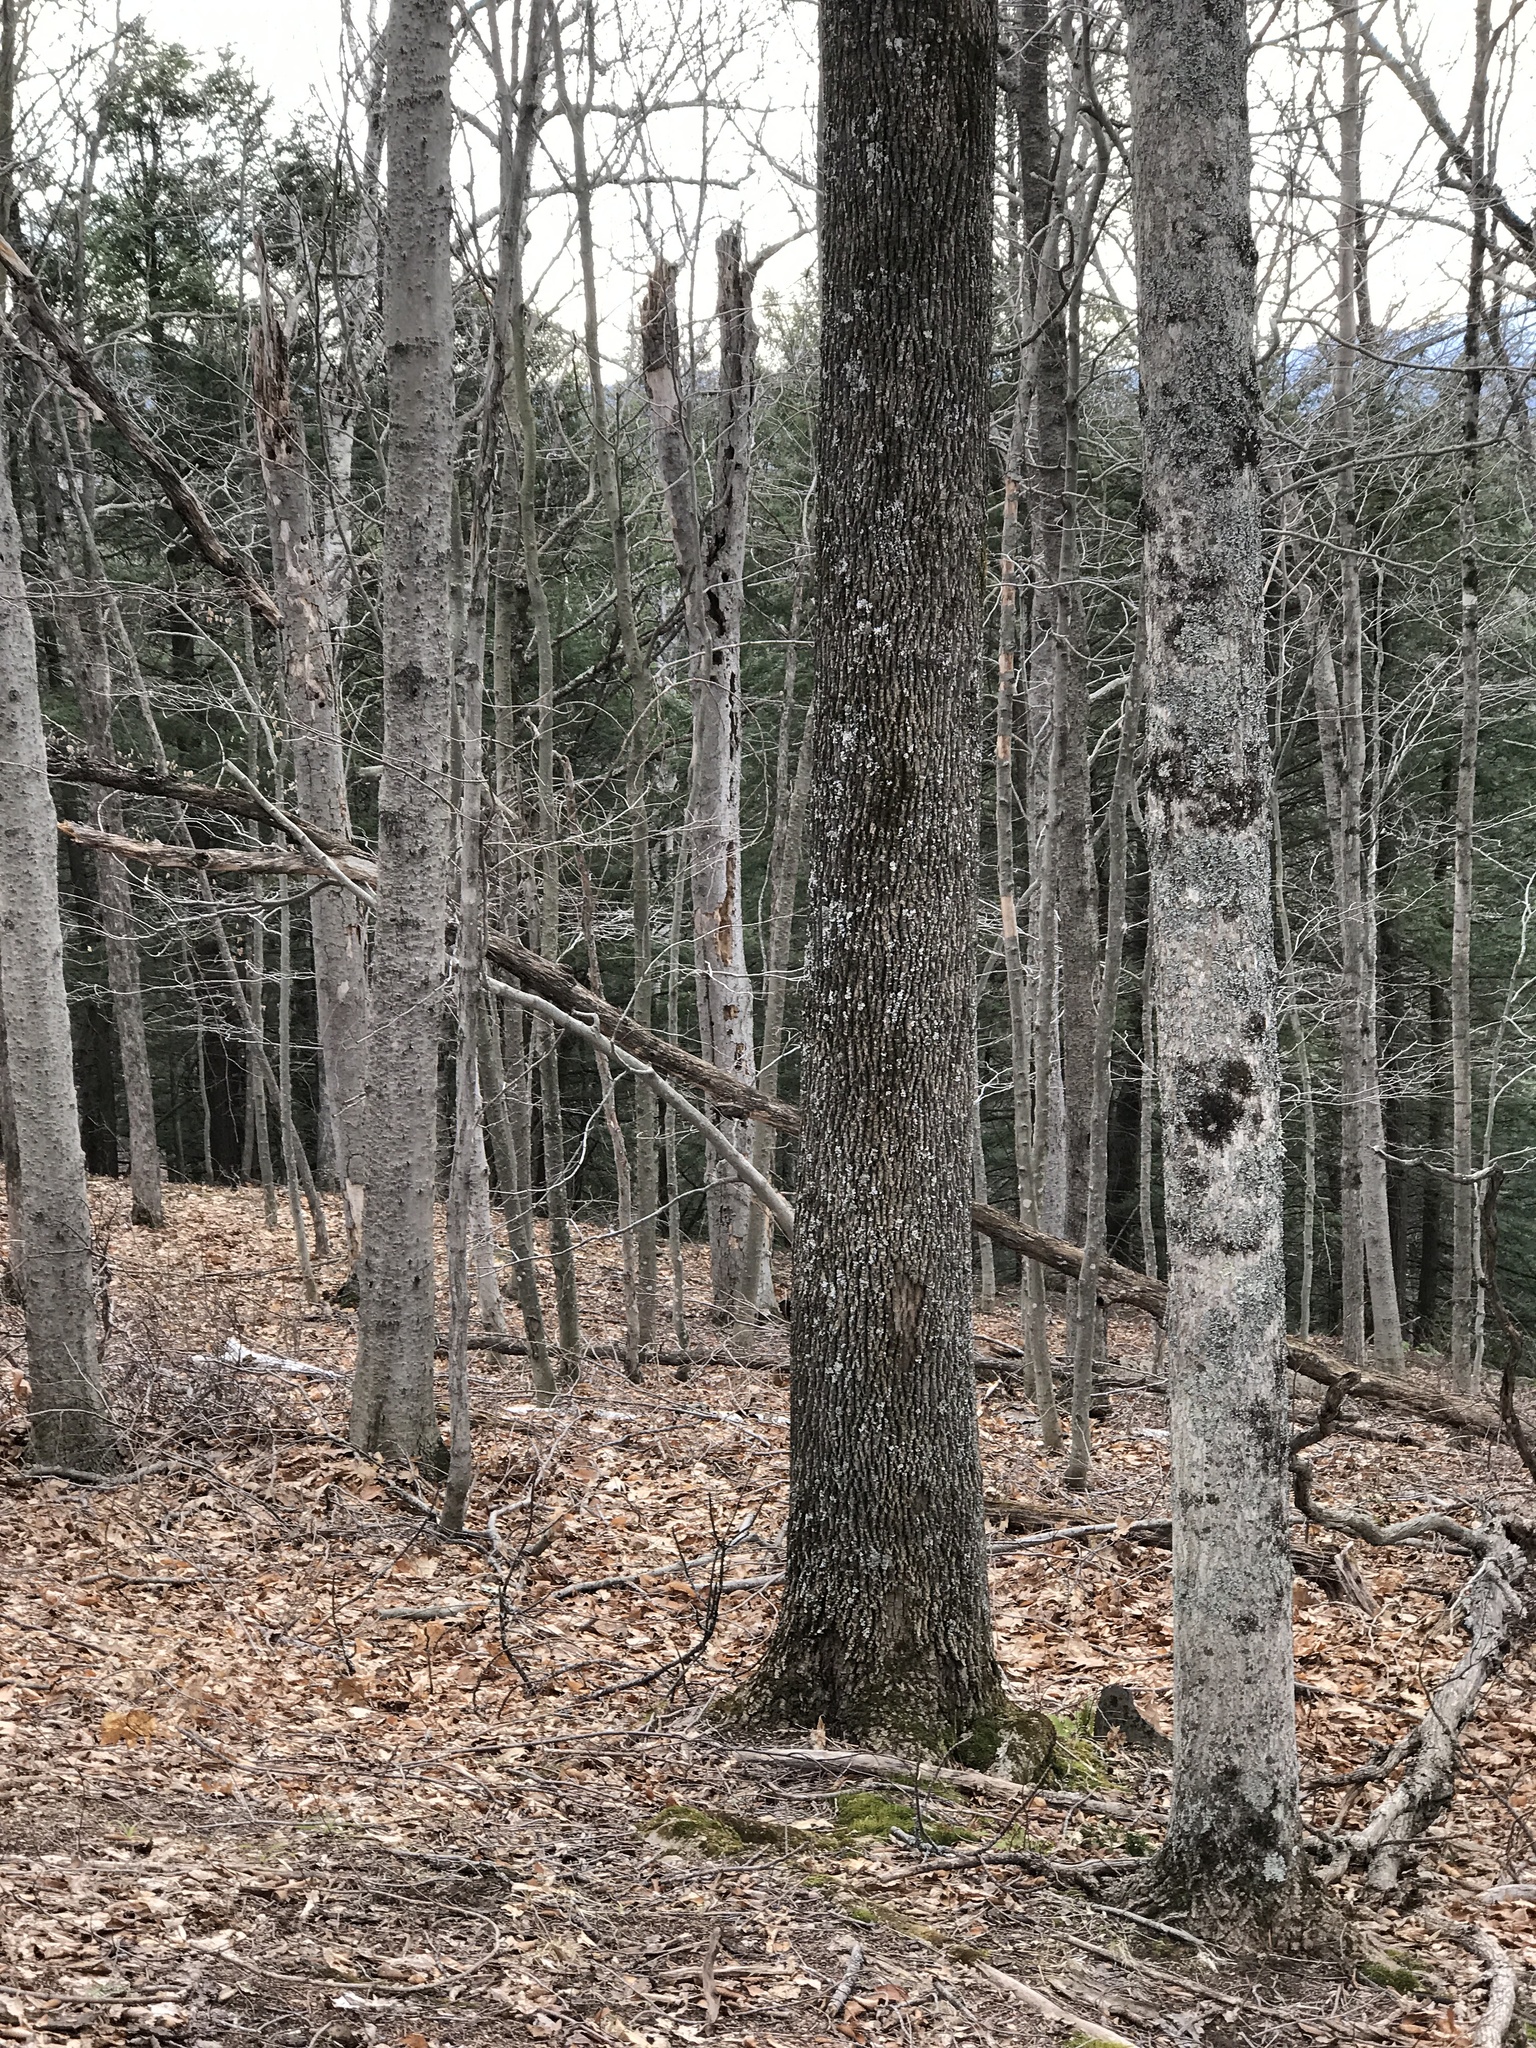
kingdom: Plantae
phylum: Tracheophyta
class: Magnoliopsida
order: Lamiales
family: Oleaceae
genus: Fraxinus
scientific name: Fraxinus americana
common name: White ash
